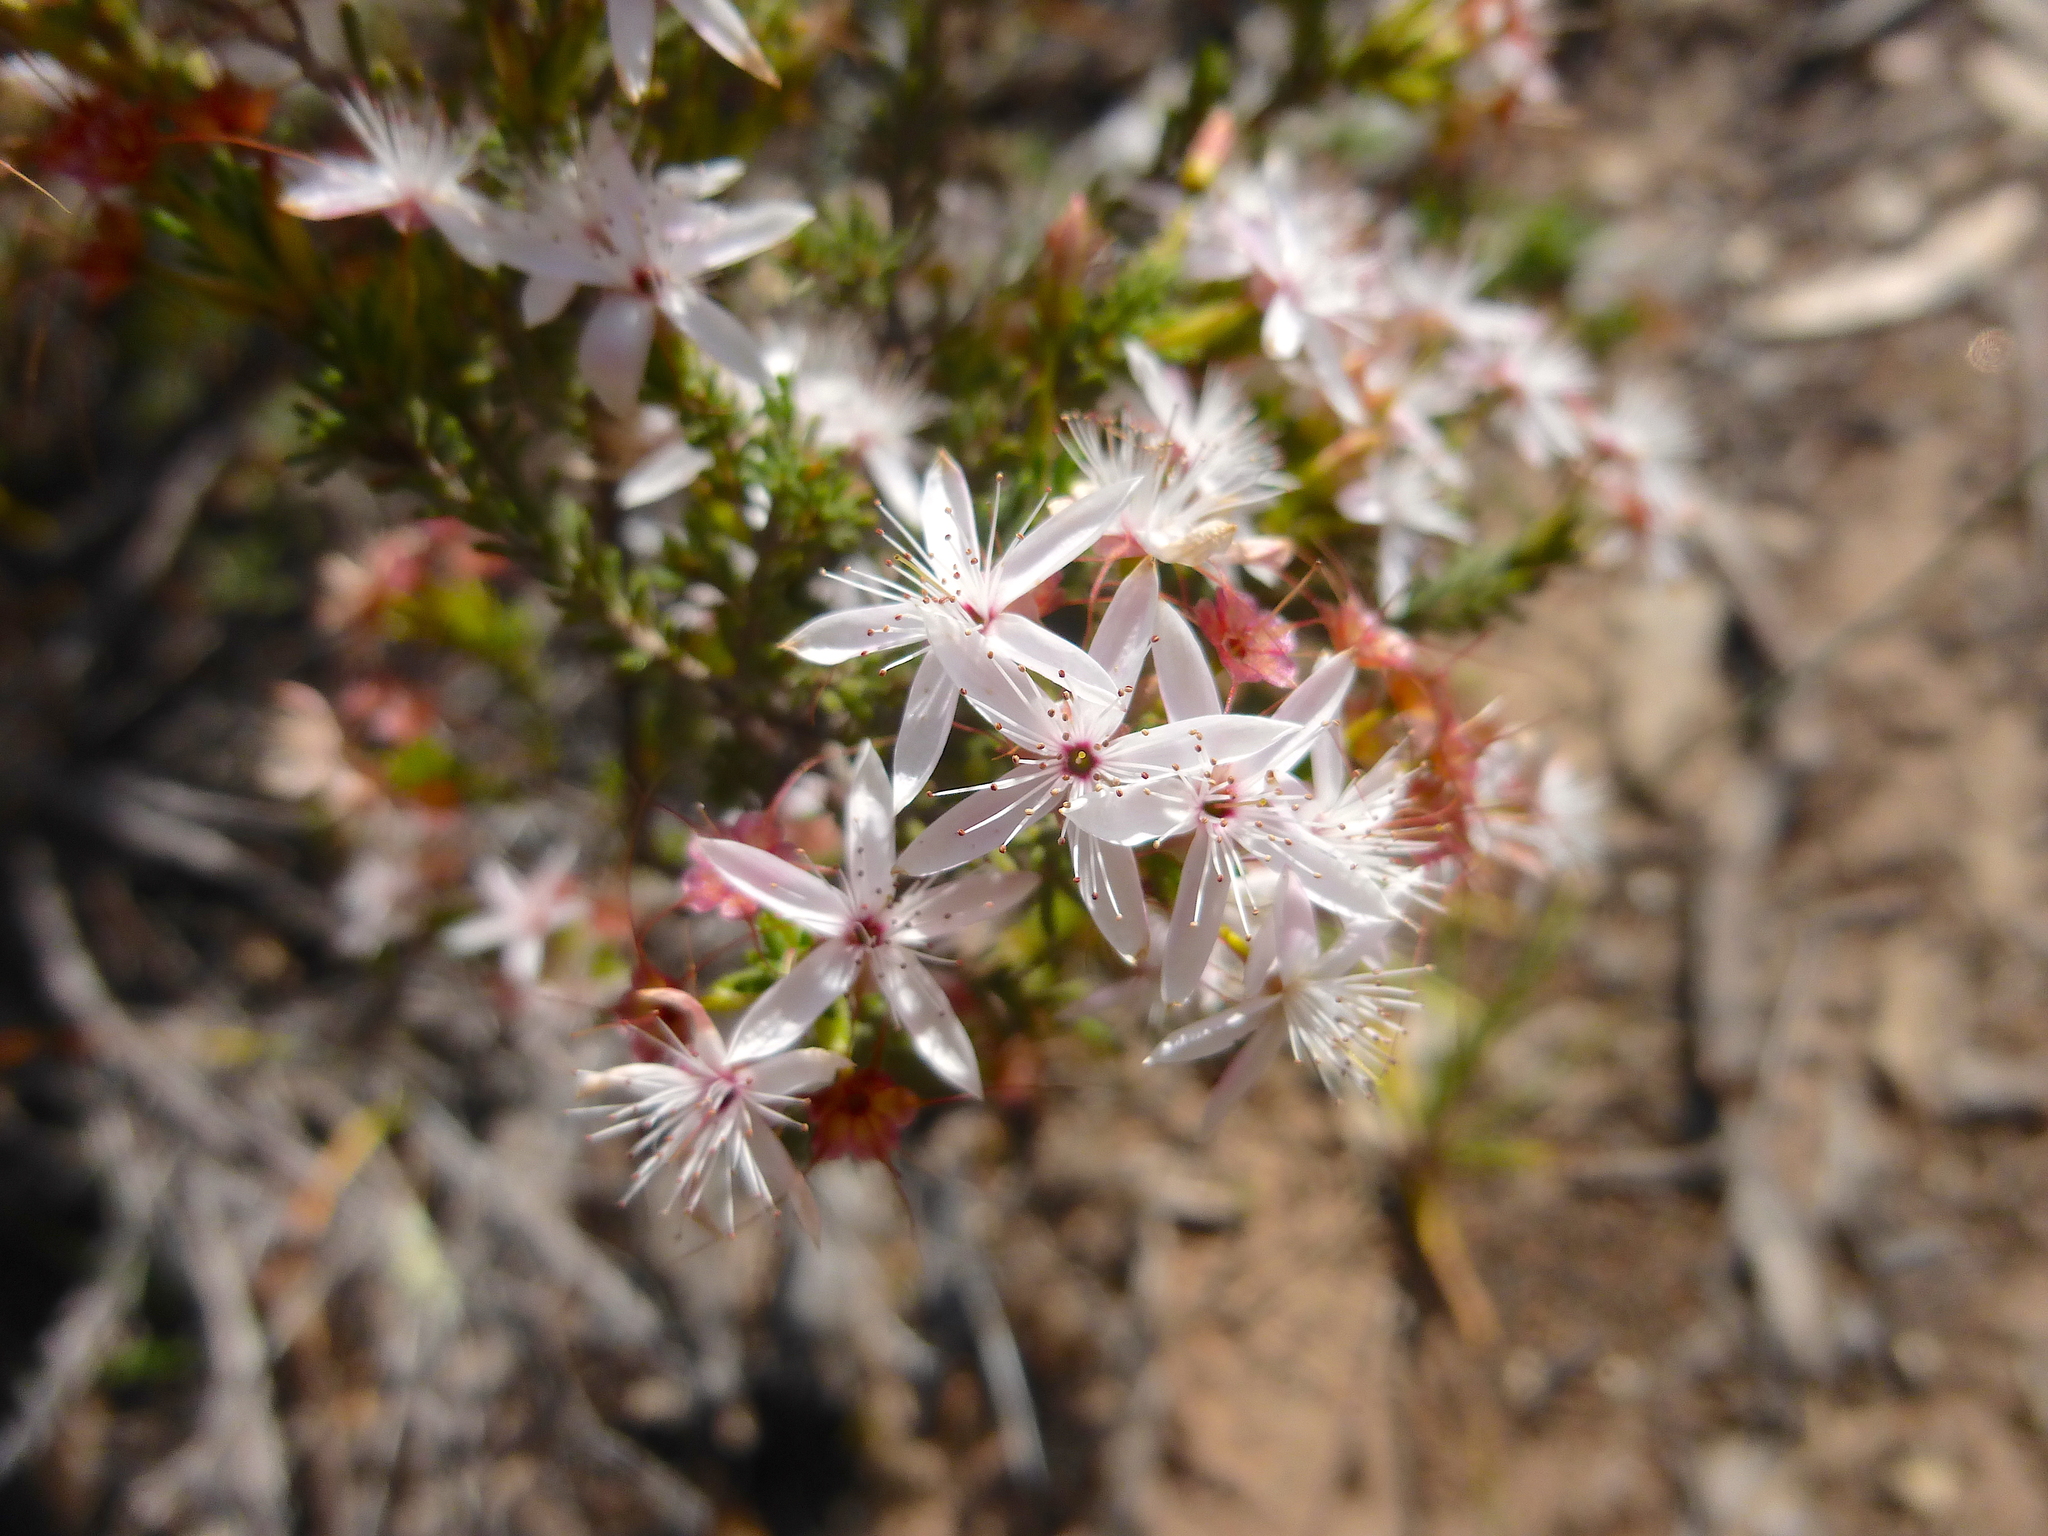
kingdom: Plantae
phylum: Tracheophyta
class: Magnoliopsida
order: Myrtales
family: Myrtaceae
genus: Calytrix
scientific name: Calytrix tetragona
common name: Common fringe myrtle
